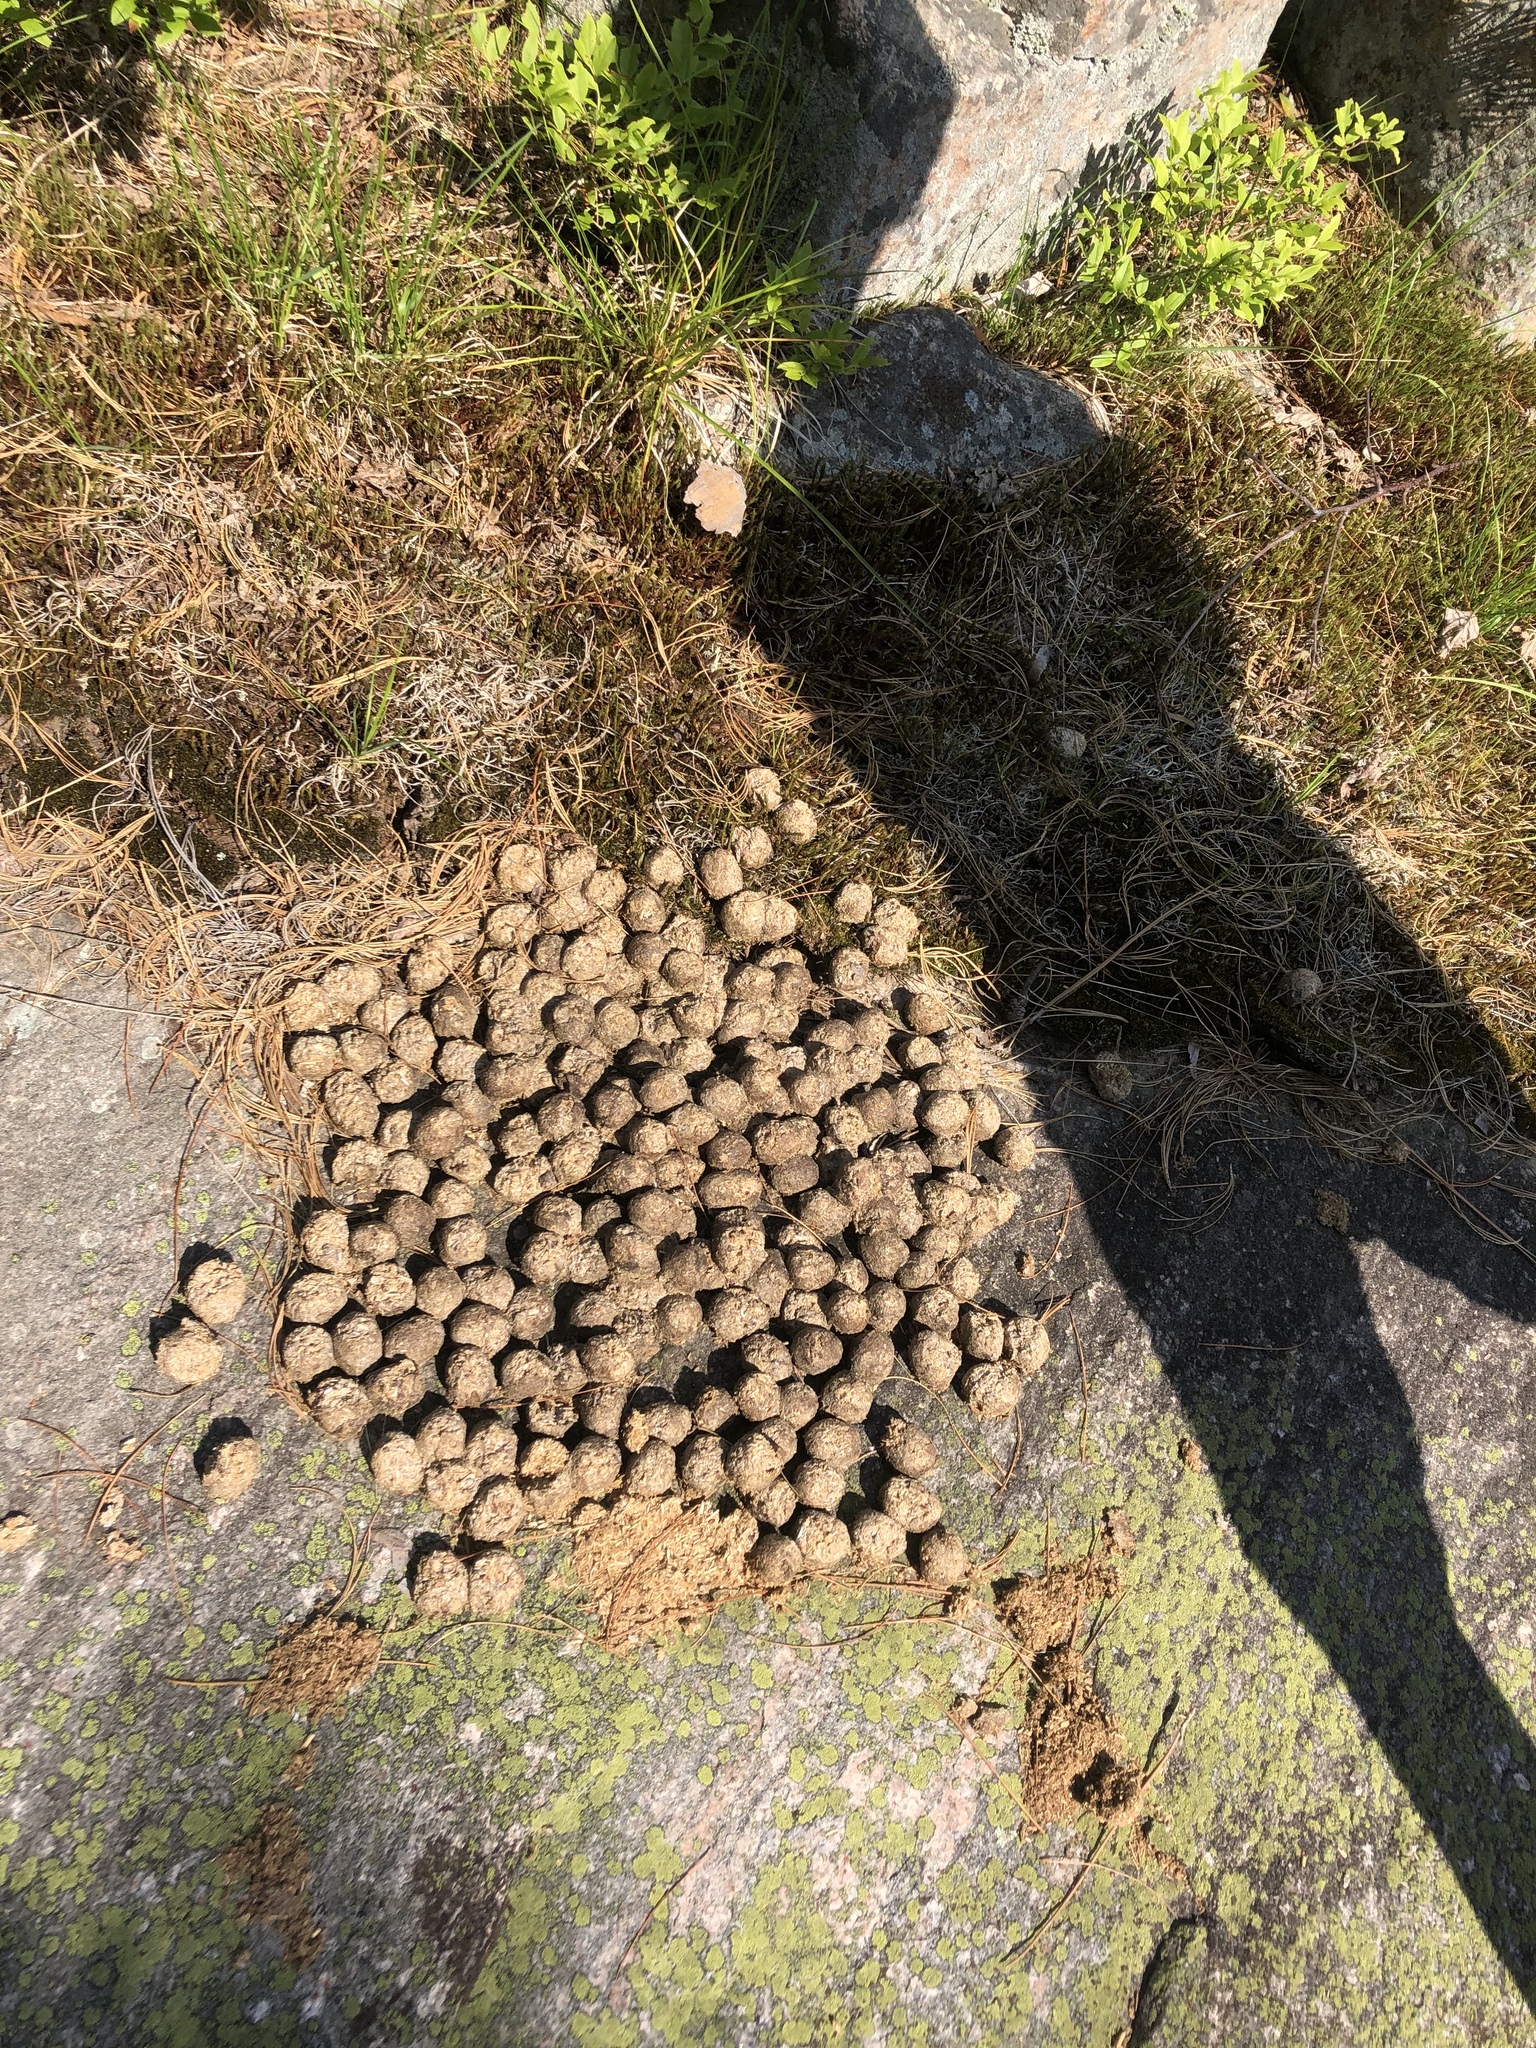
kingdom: Animalia
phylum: Chordata
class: Mammalia
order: Artiodactyla
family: Cervidae
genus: Alces
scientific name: Alces alces
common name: Moose
